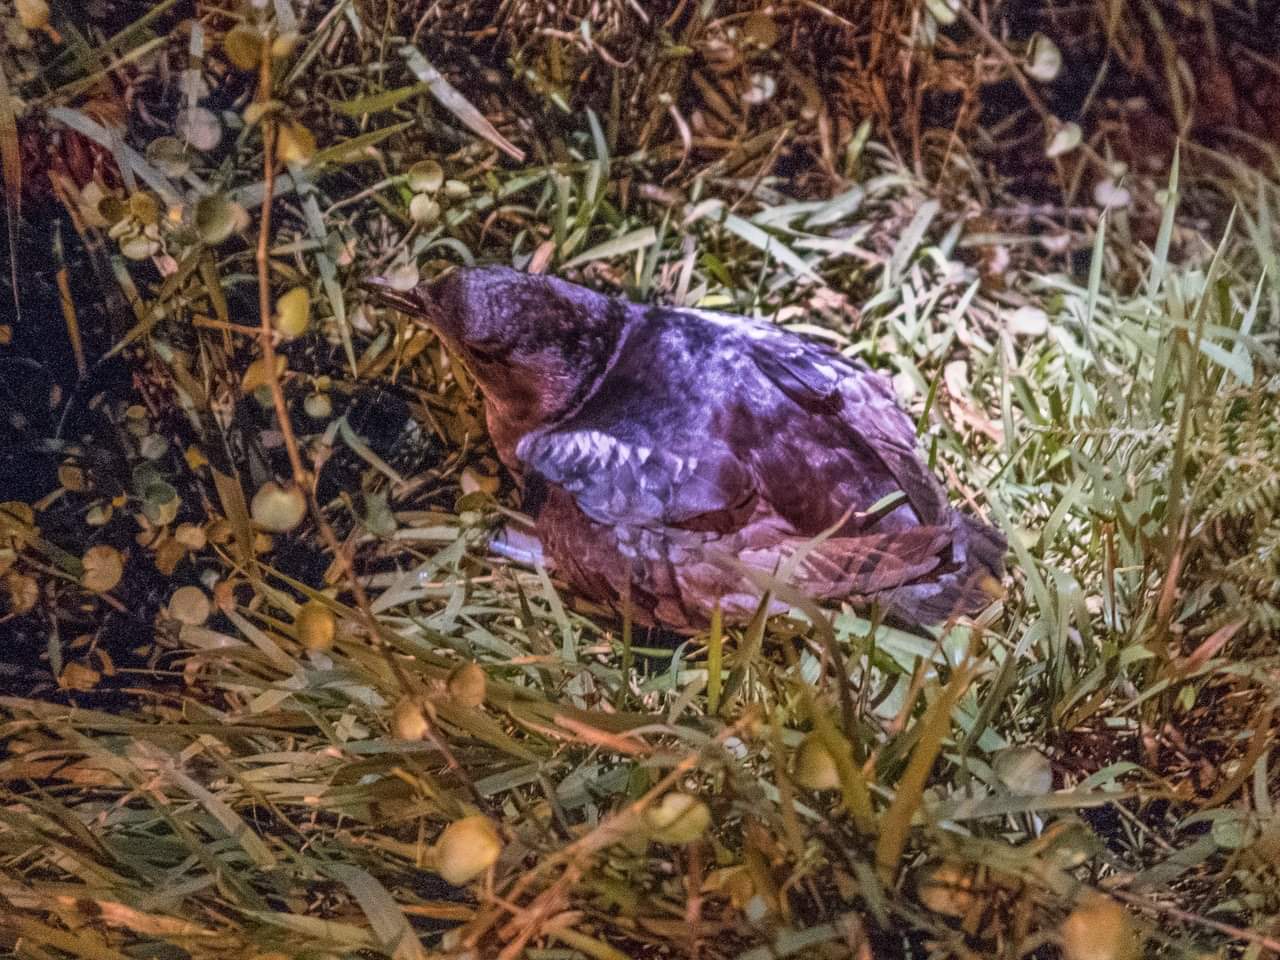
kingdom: Animalia
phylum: Chordata
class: Aves
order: Procellariiformes
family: Pelecanoididae
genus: Pelecanoides
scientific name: Pelecanoides urinatrix
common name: Common diving-petrel
